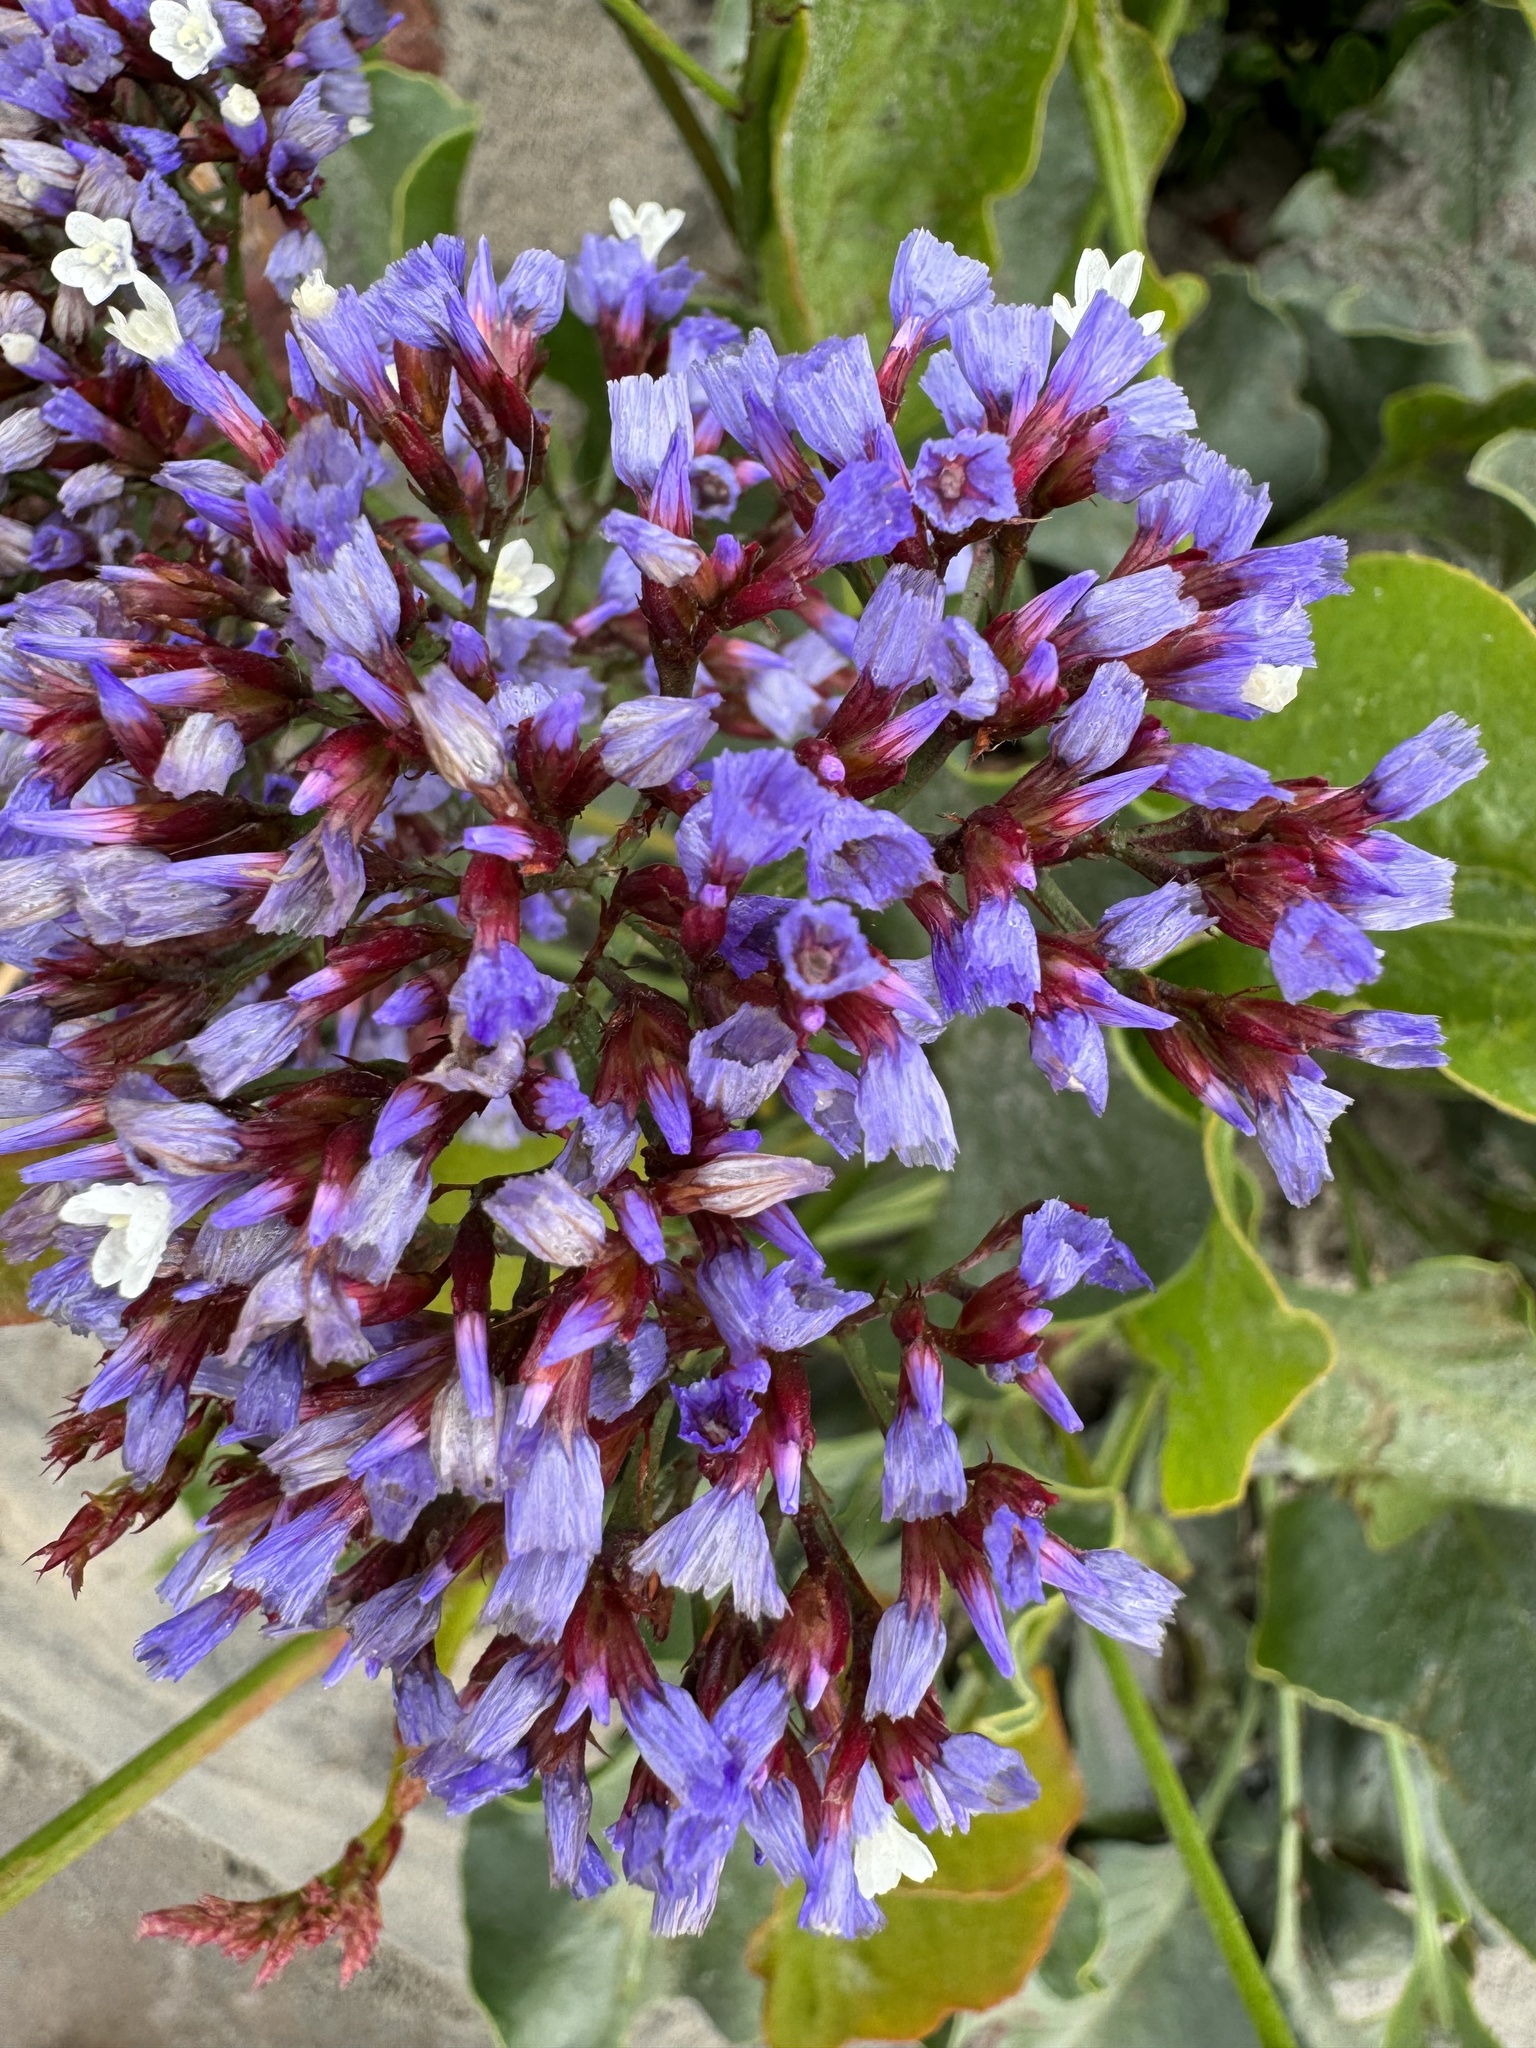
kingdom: Plantae
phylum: Tracheophyta
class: Magnoliopsida
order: Caryophyllales
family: Plumbaginaceae
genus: Limonium
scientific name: Limonium perezii
